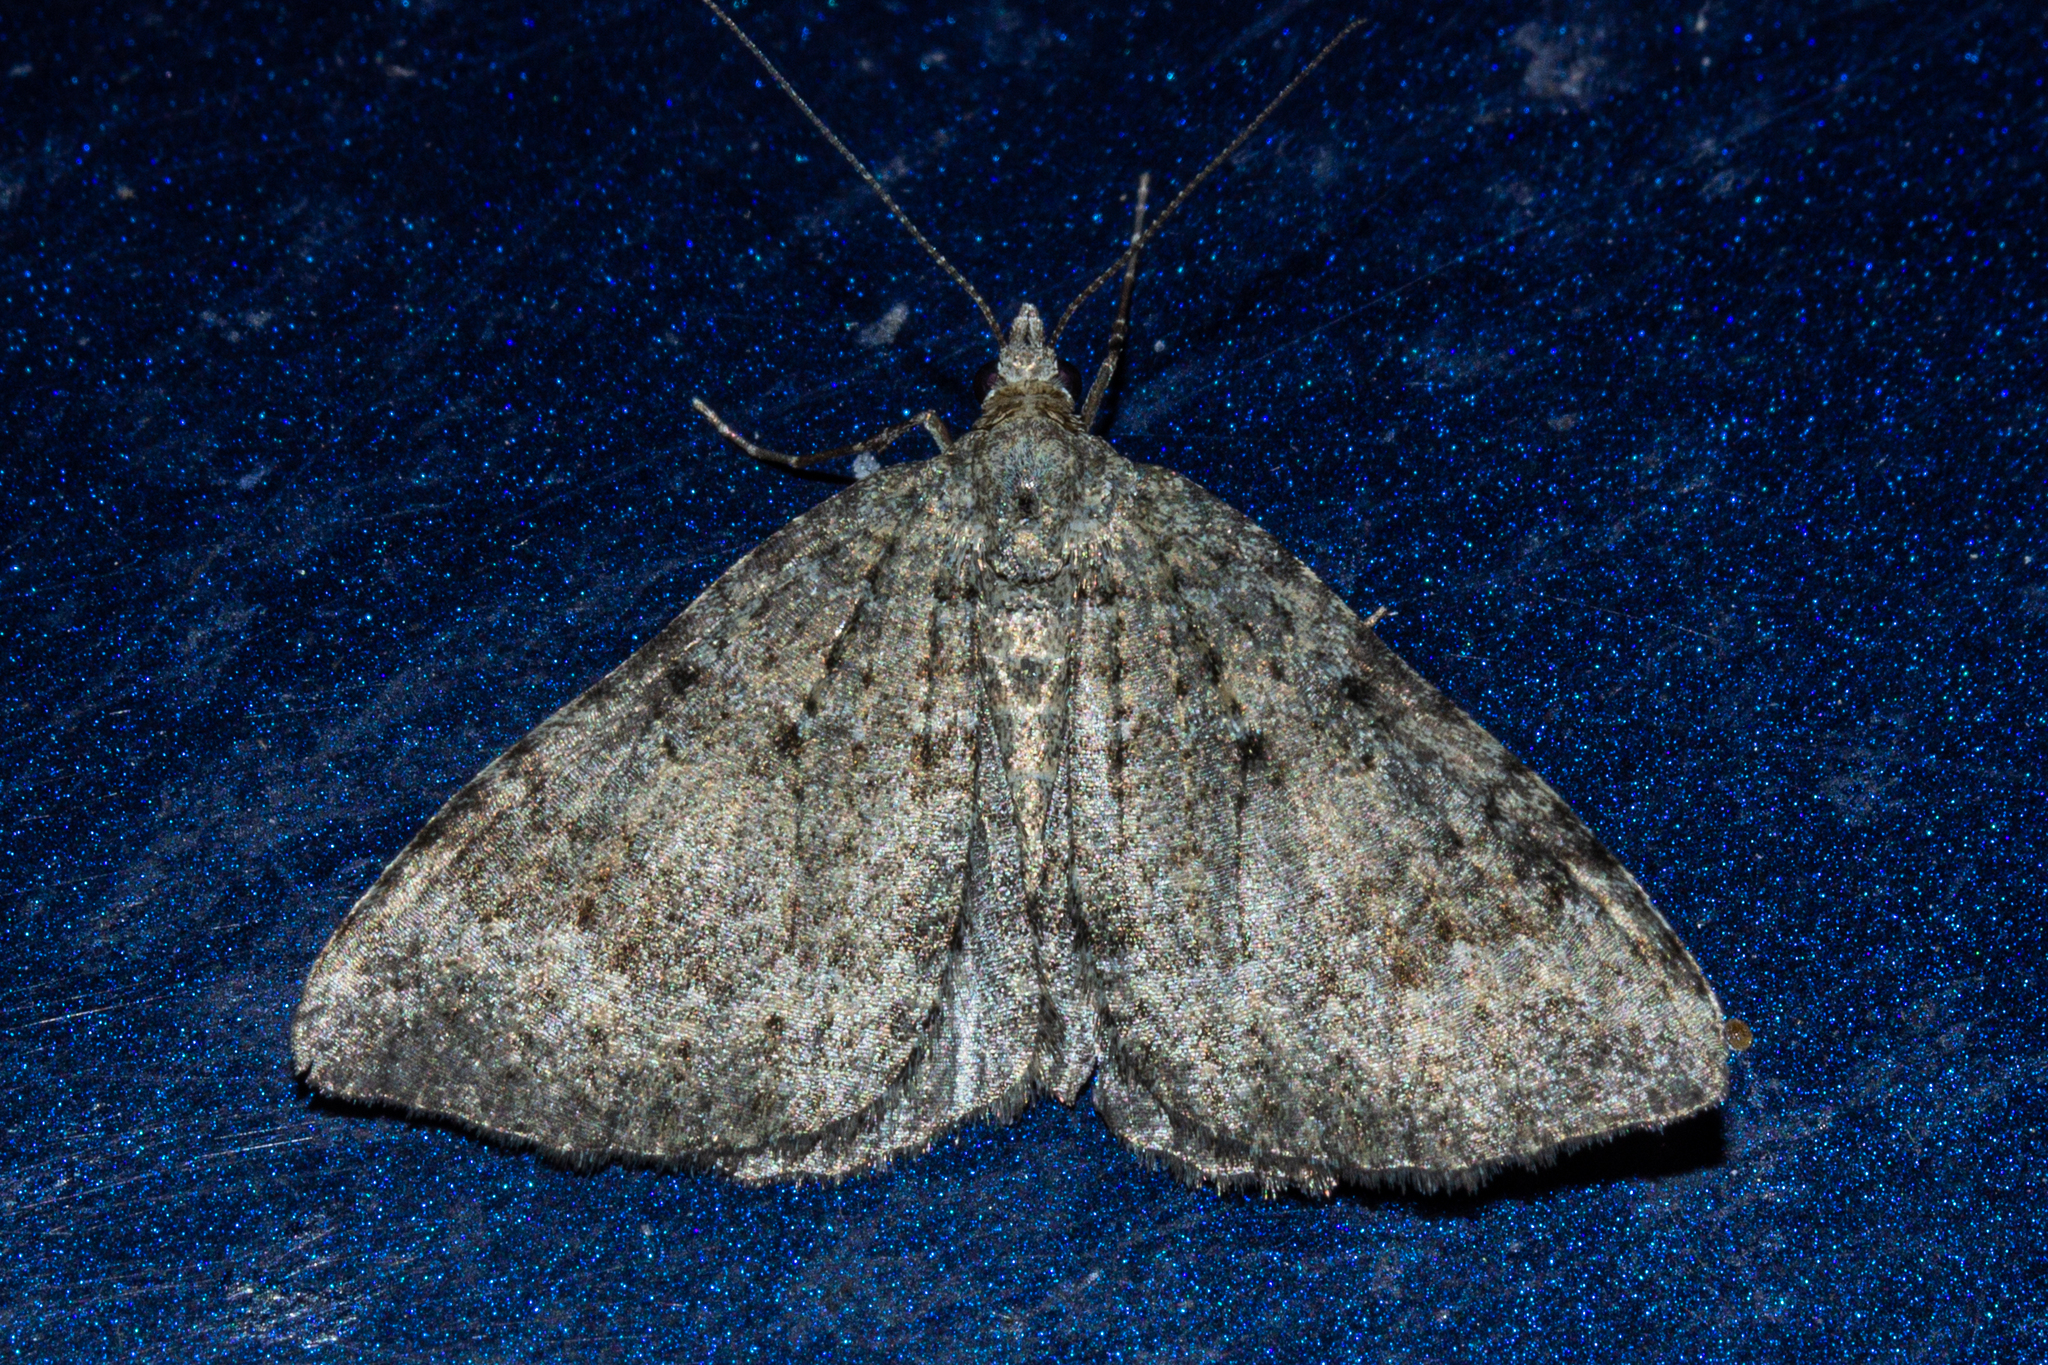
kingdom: Animalia
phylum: Arthropoda
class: Insecta
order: Lepidoptera
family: Geometridae
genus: Helastia
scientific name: Helastia corcularia
